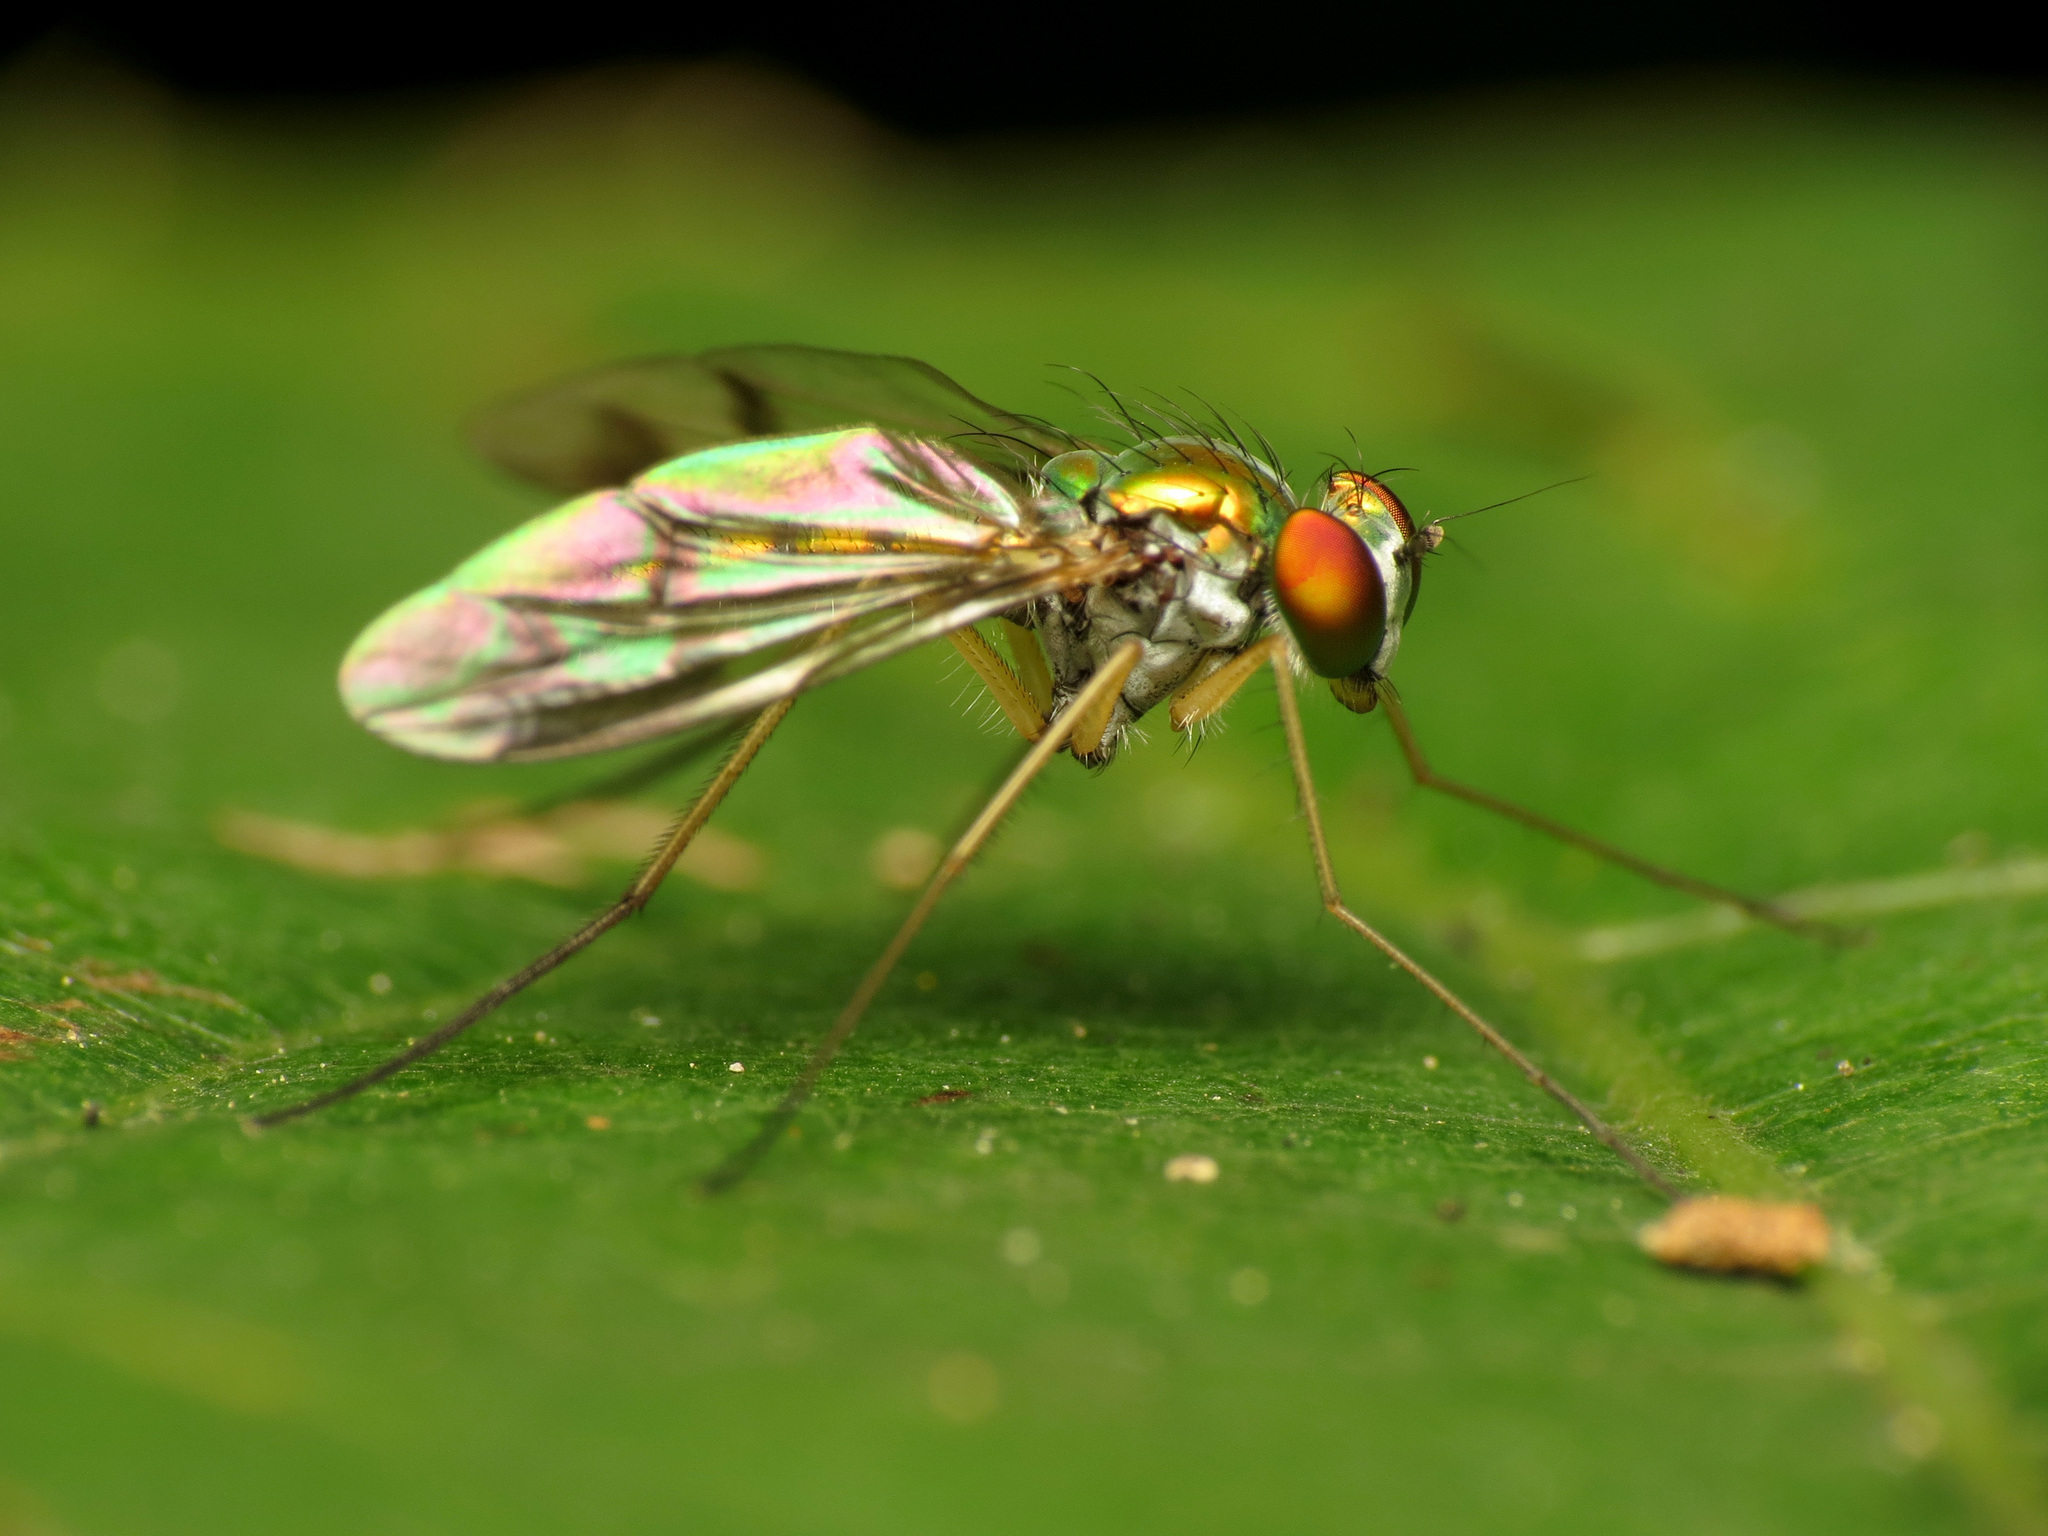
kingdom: Animalia
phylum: Arthropoda
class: Insecta
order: Diptera
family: Dolichopodidae
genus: Condylostylus
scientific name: Condylostylus
